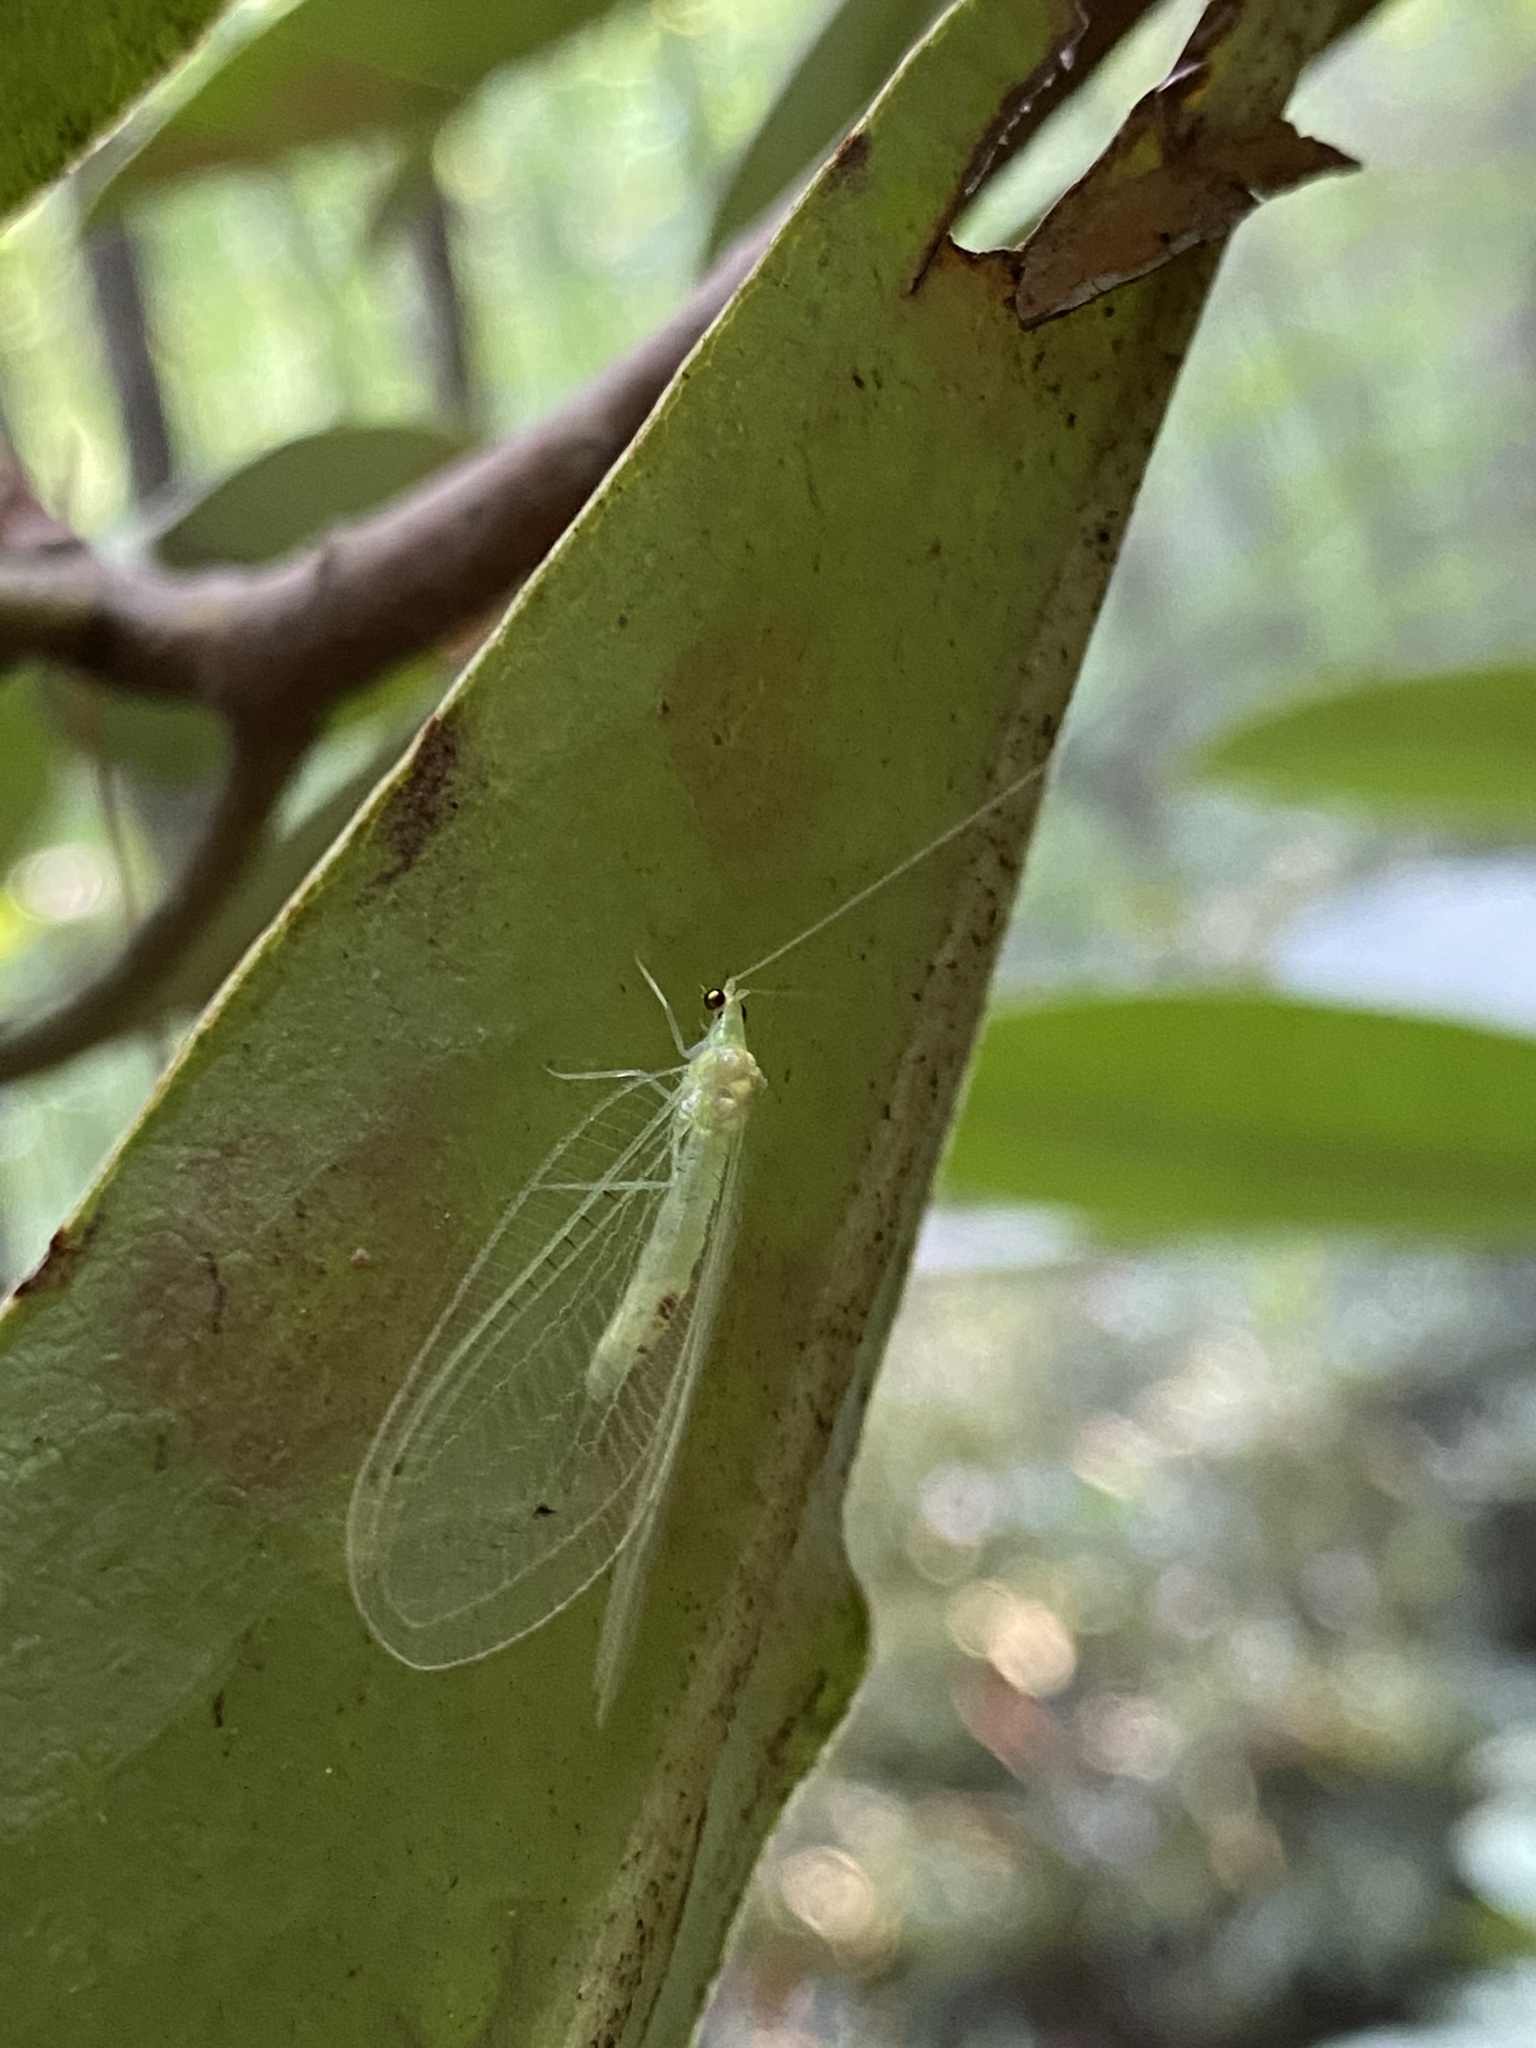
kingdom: Animalia
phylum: Arthropoda
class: Insecta
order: Neuroptera
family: Chrysopidae
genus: Leucochrysa
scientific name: Leucochrysa insularis
